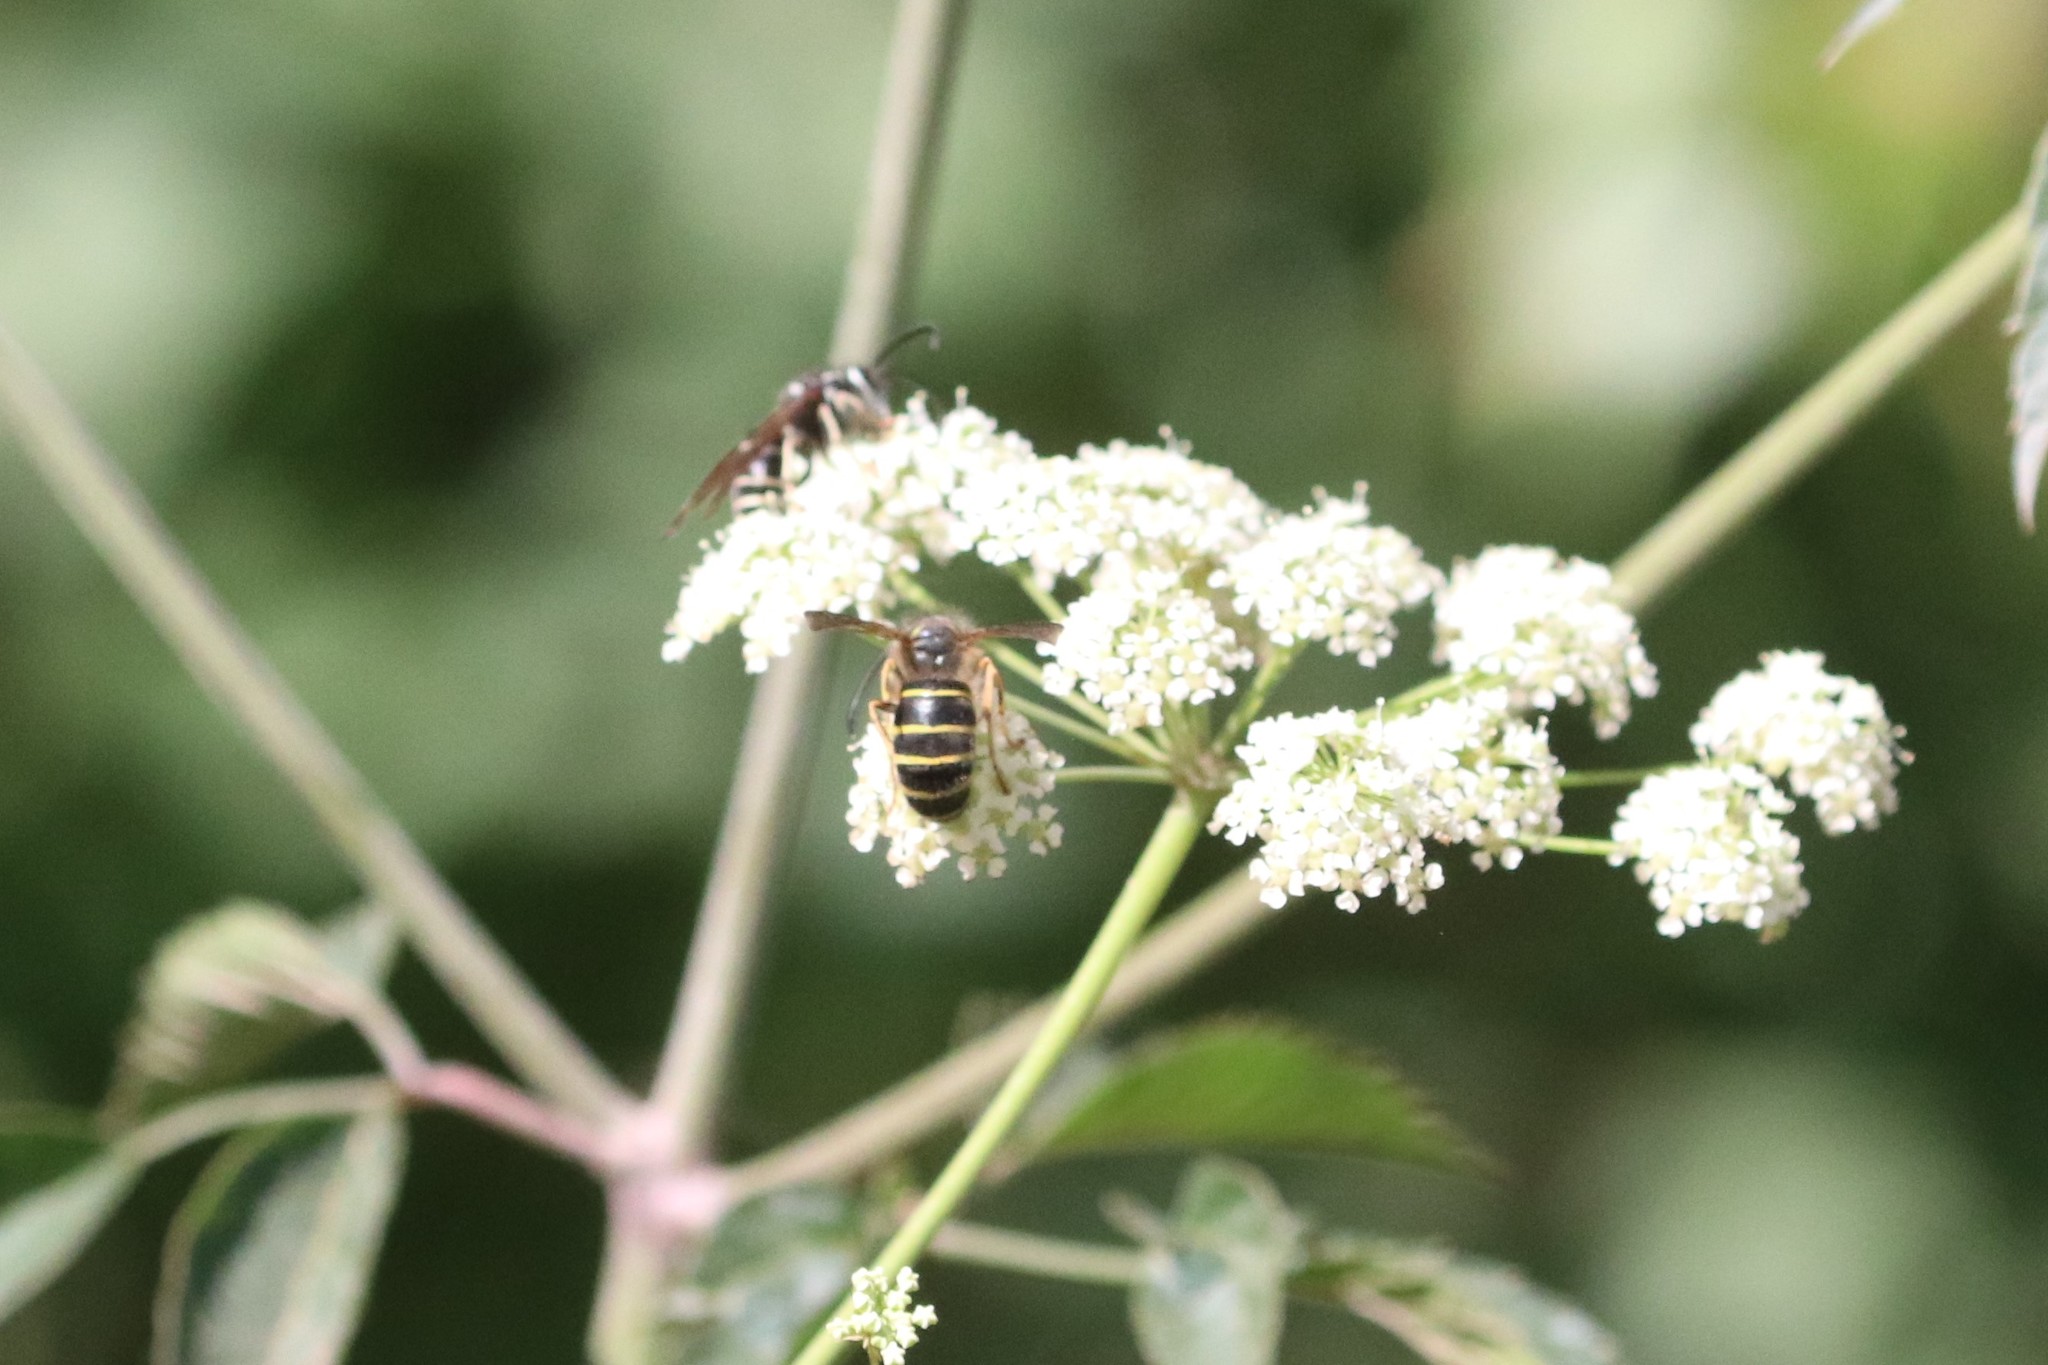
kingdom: Animalia
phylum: Arthropoda
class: Insecta
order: Hymenoptera
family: Vespidae
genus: Dolichovespula
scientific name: Dolichovespula norvegicoides
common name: Northern aerial yellowjacket
